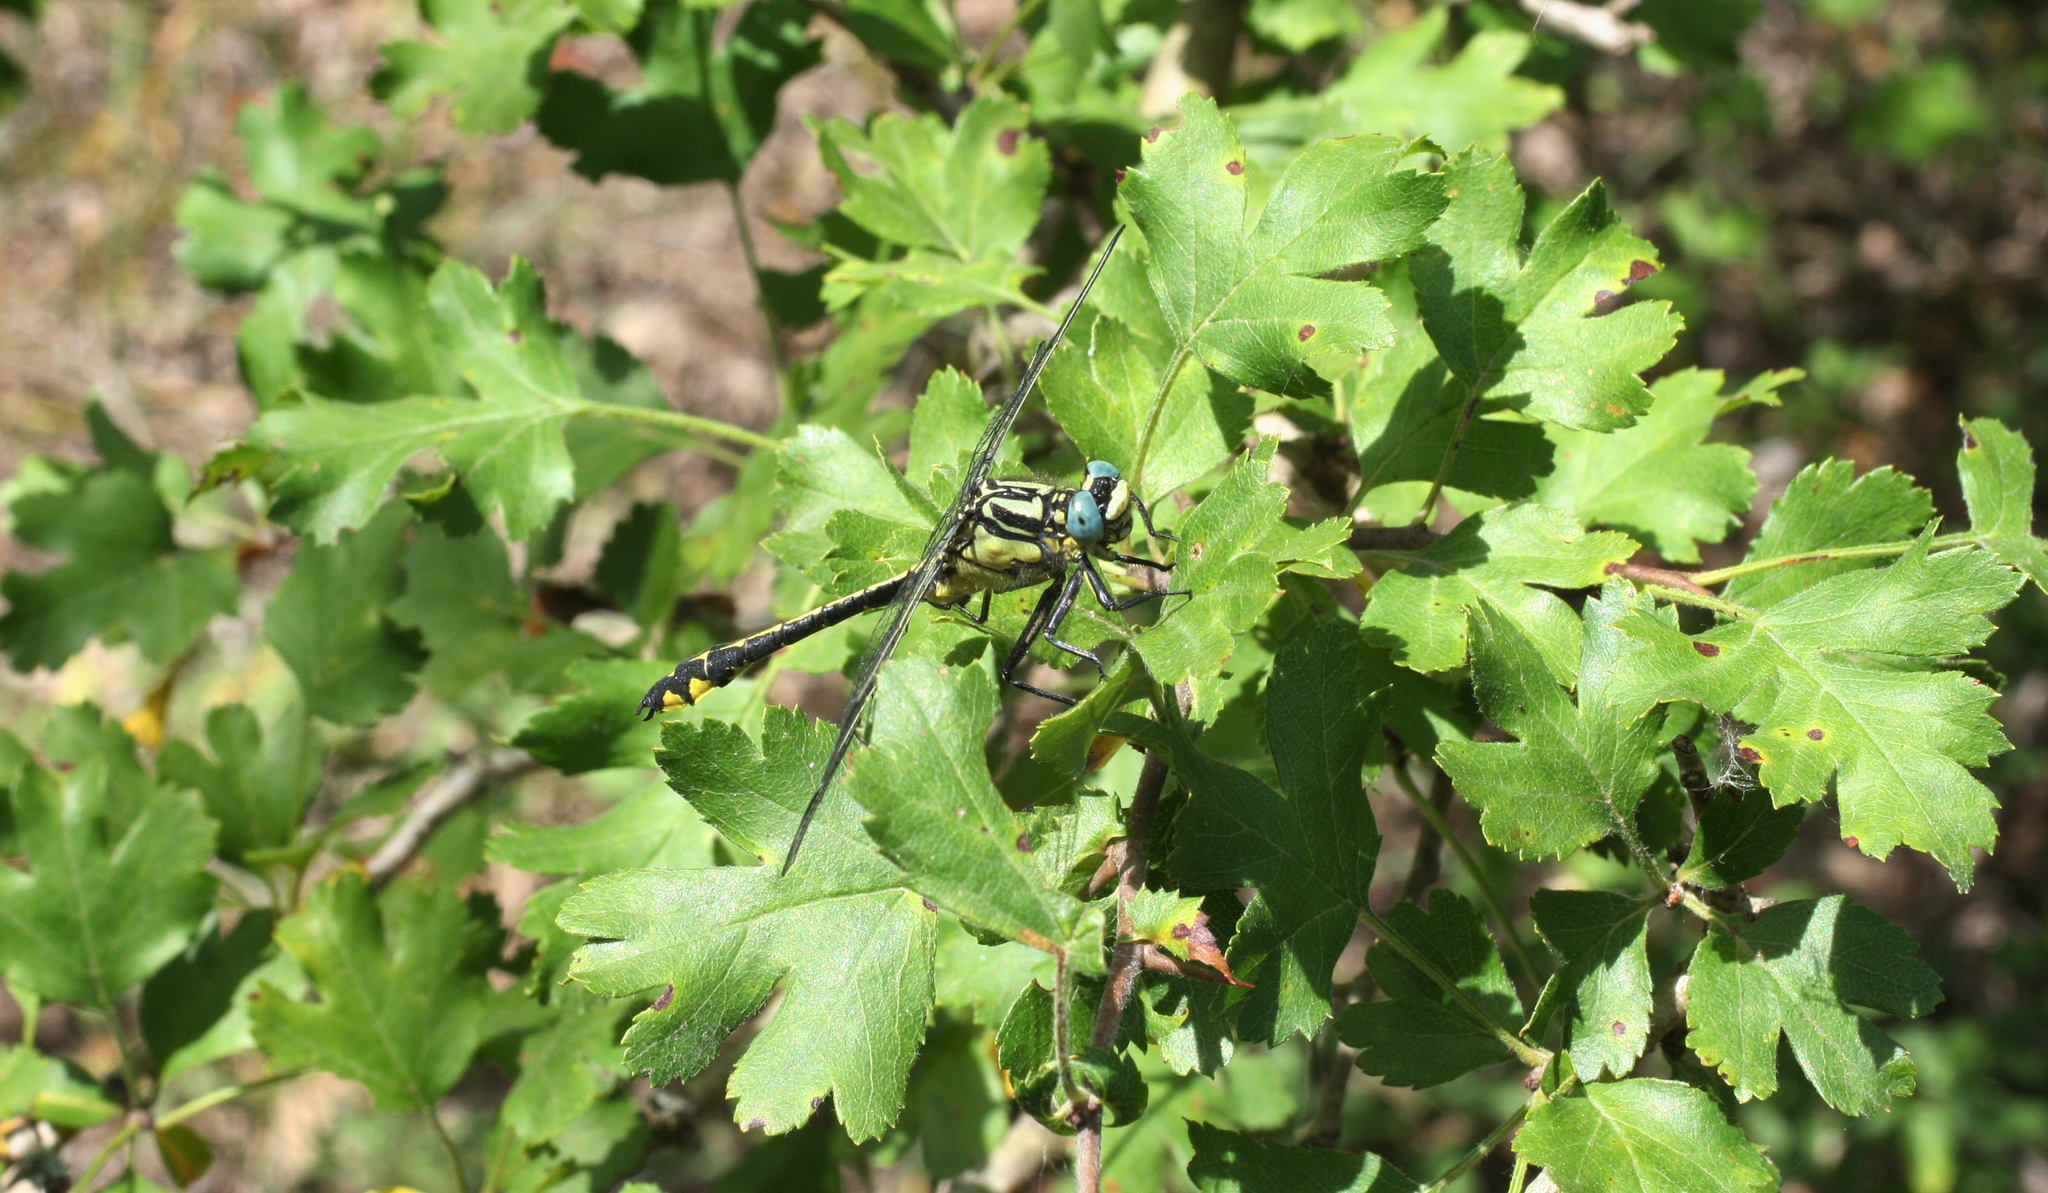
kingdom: Animalia
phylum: Arthropoda
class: Insecta
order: Odonata
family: Gomphidae
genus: Gomphus
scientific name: Gomphus schneiderii
